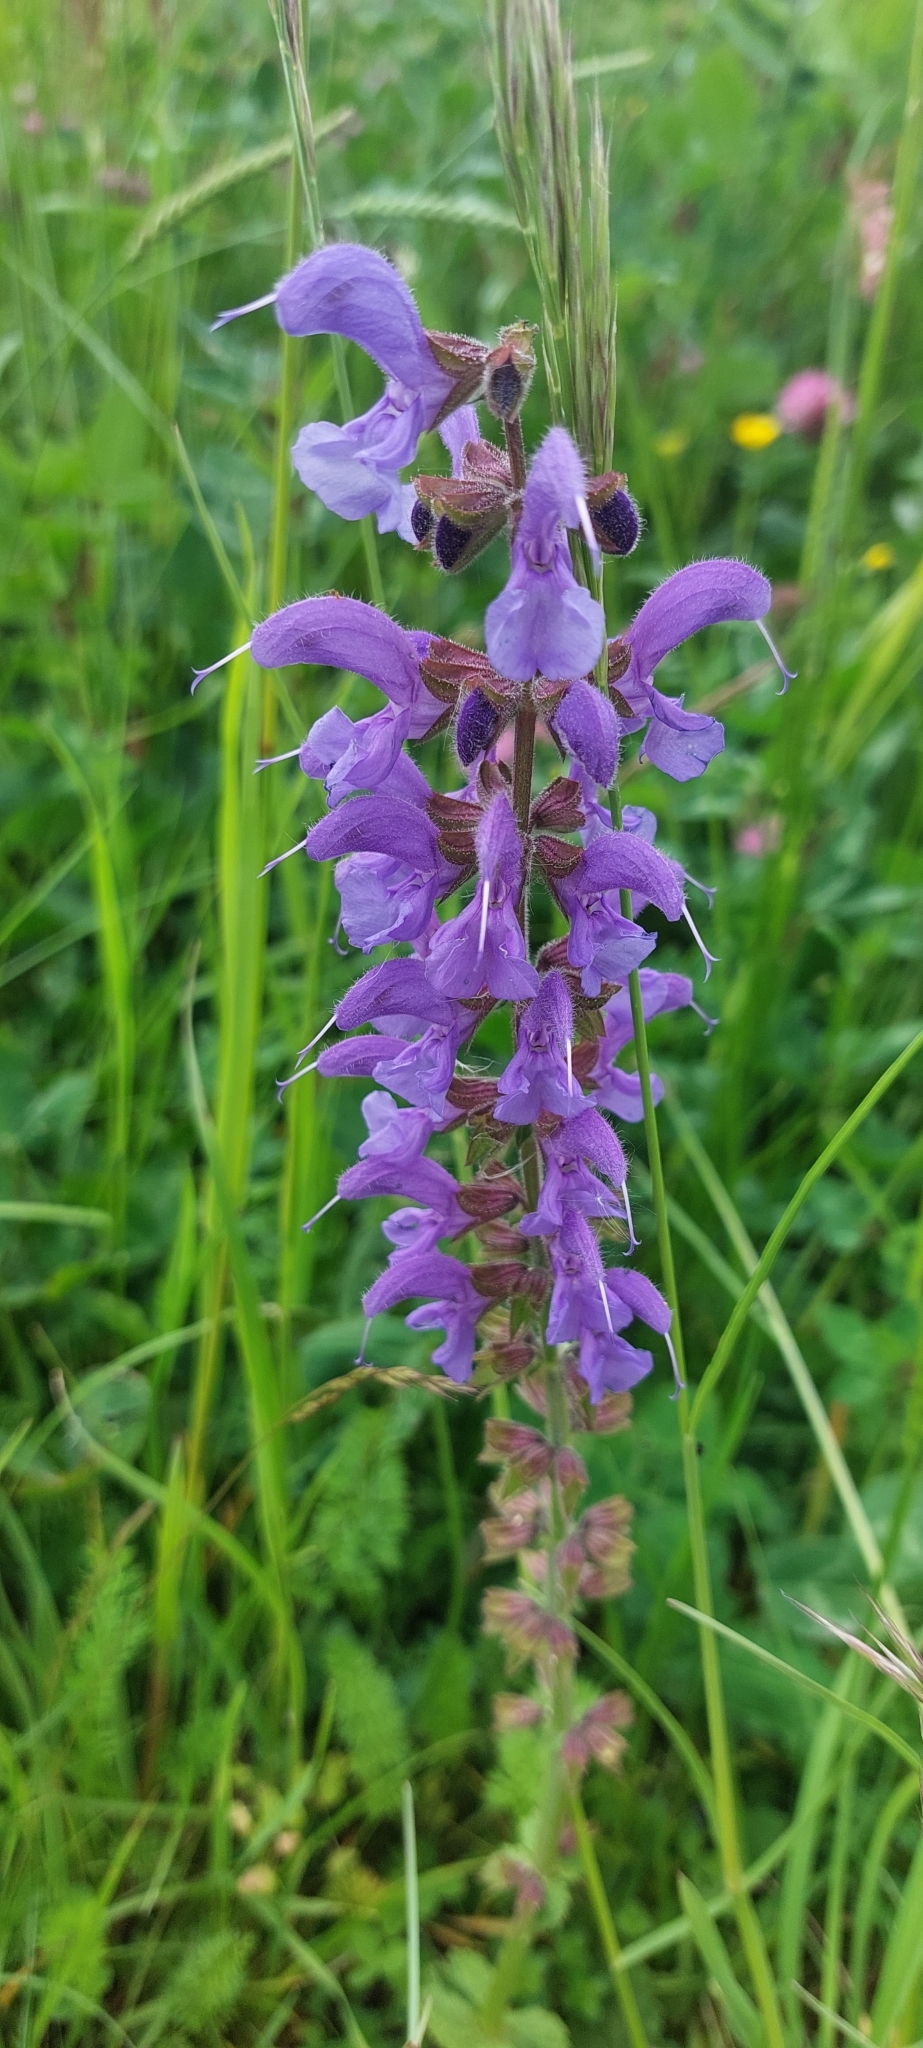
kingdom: Plantae
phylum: Tracheophyta
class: Magnoliopsida
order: Lamiales
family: Lamiaceae
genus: Salvia
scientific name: Salvia pratensis
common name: Meadow sage
